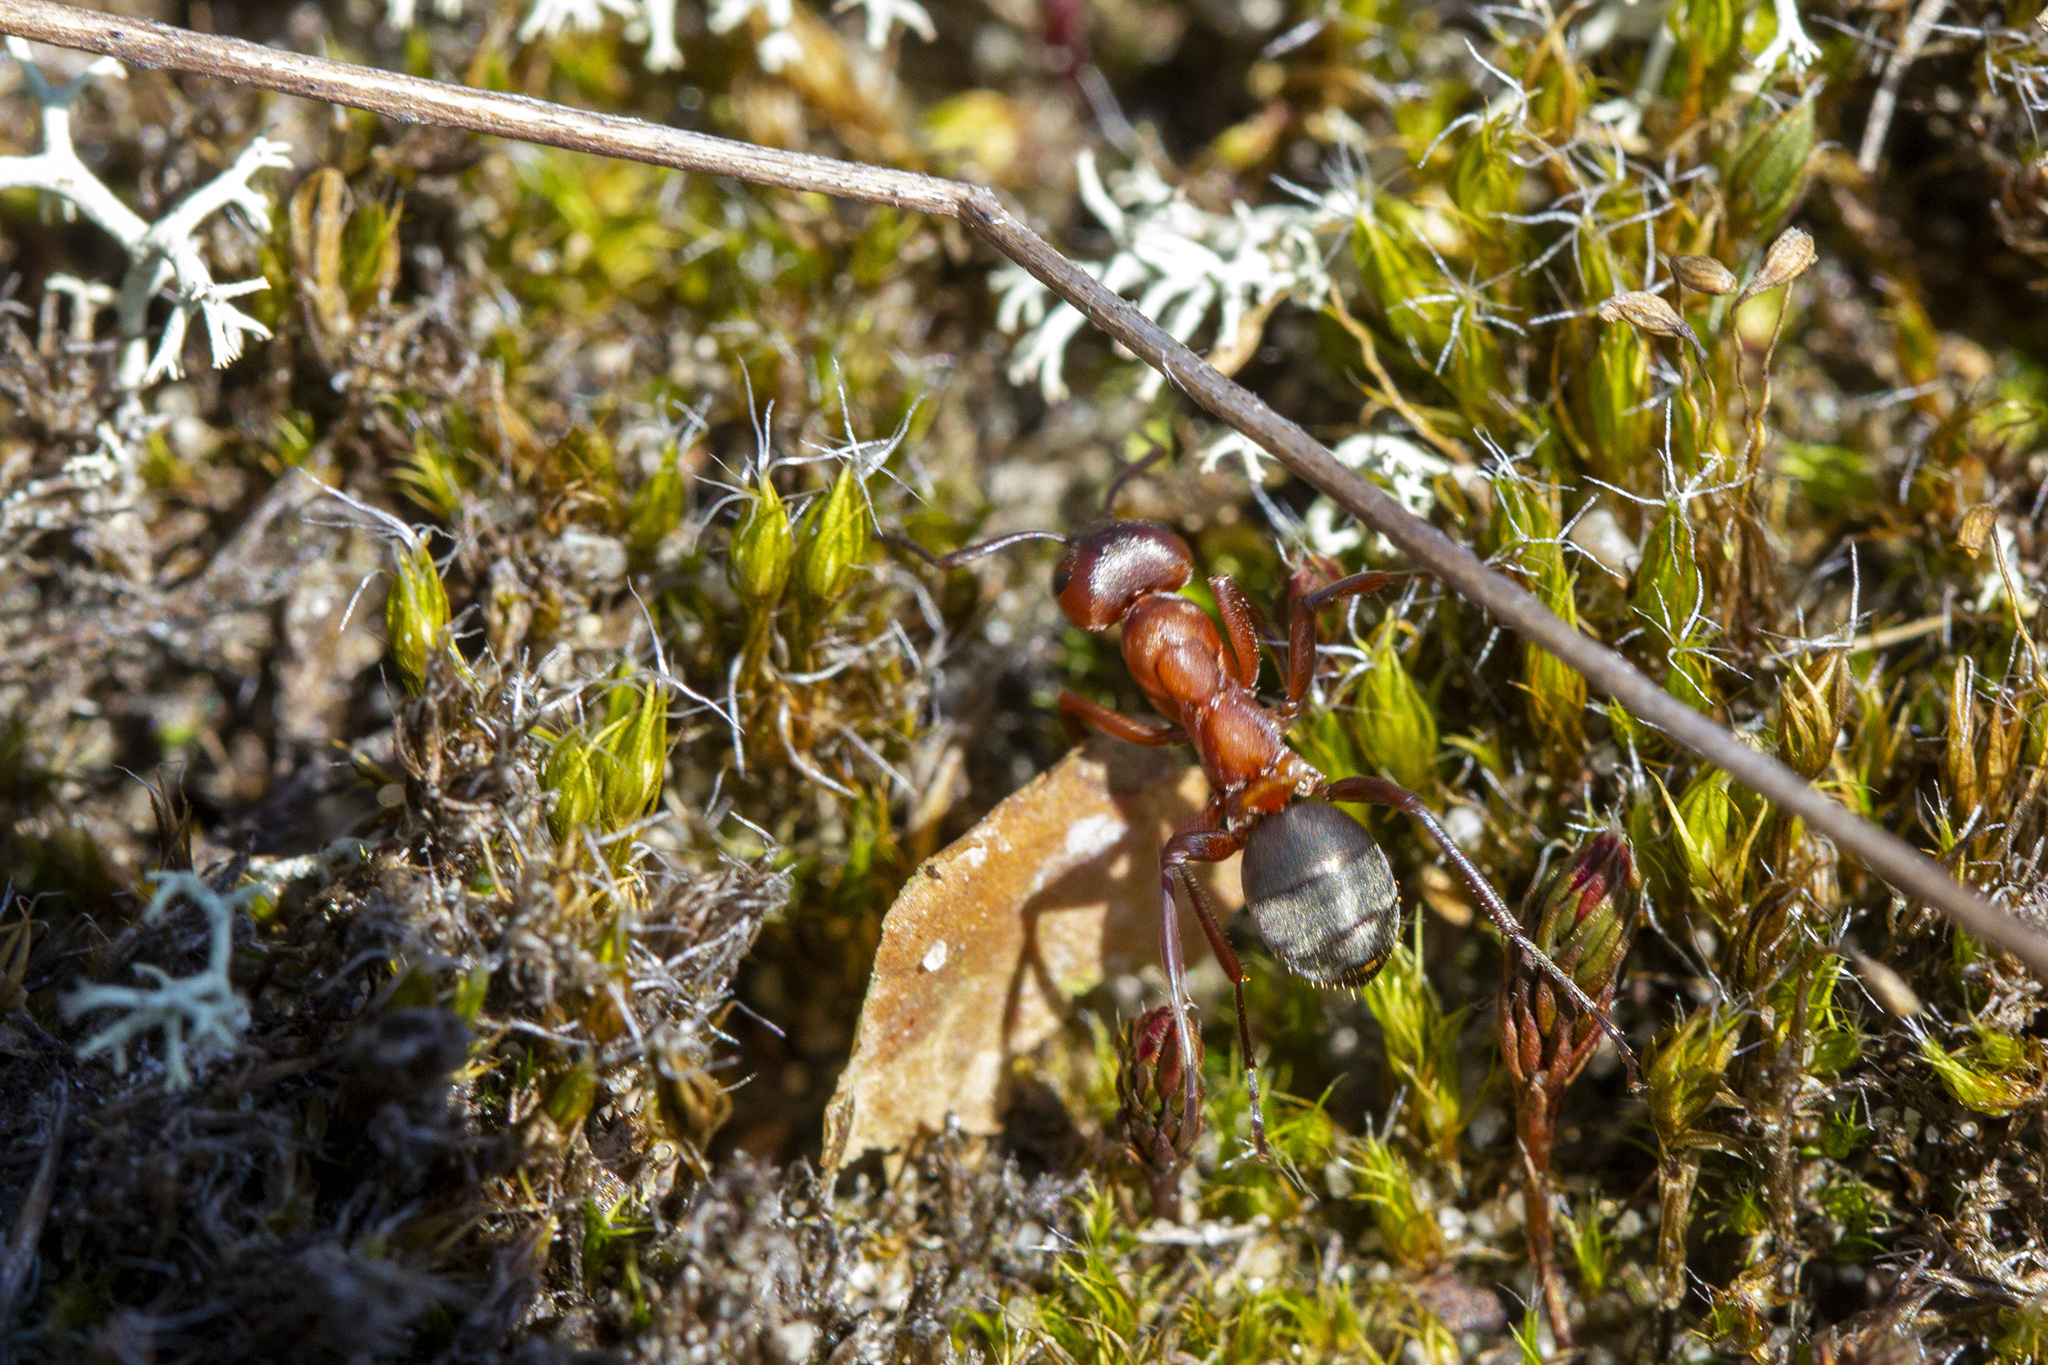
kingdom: Animalia
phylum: Arthropoda
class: Insecta
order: Hymenoptera
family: Formicidae
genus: Formica
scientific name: Formica sanguinea
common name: Blood-red ant
